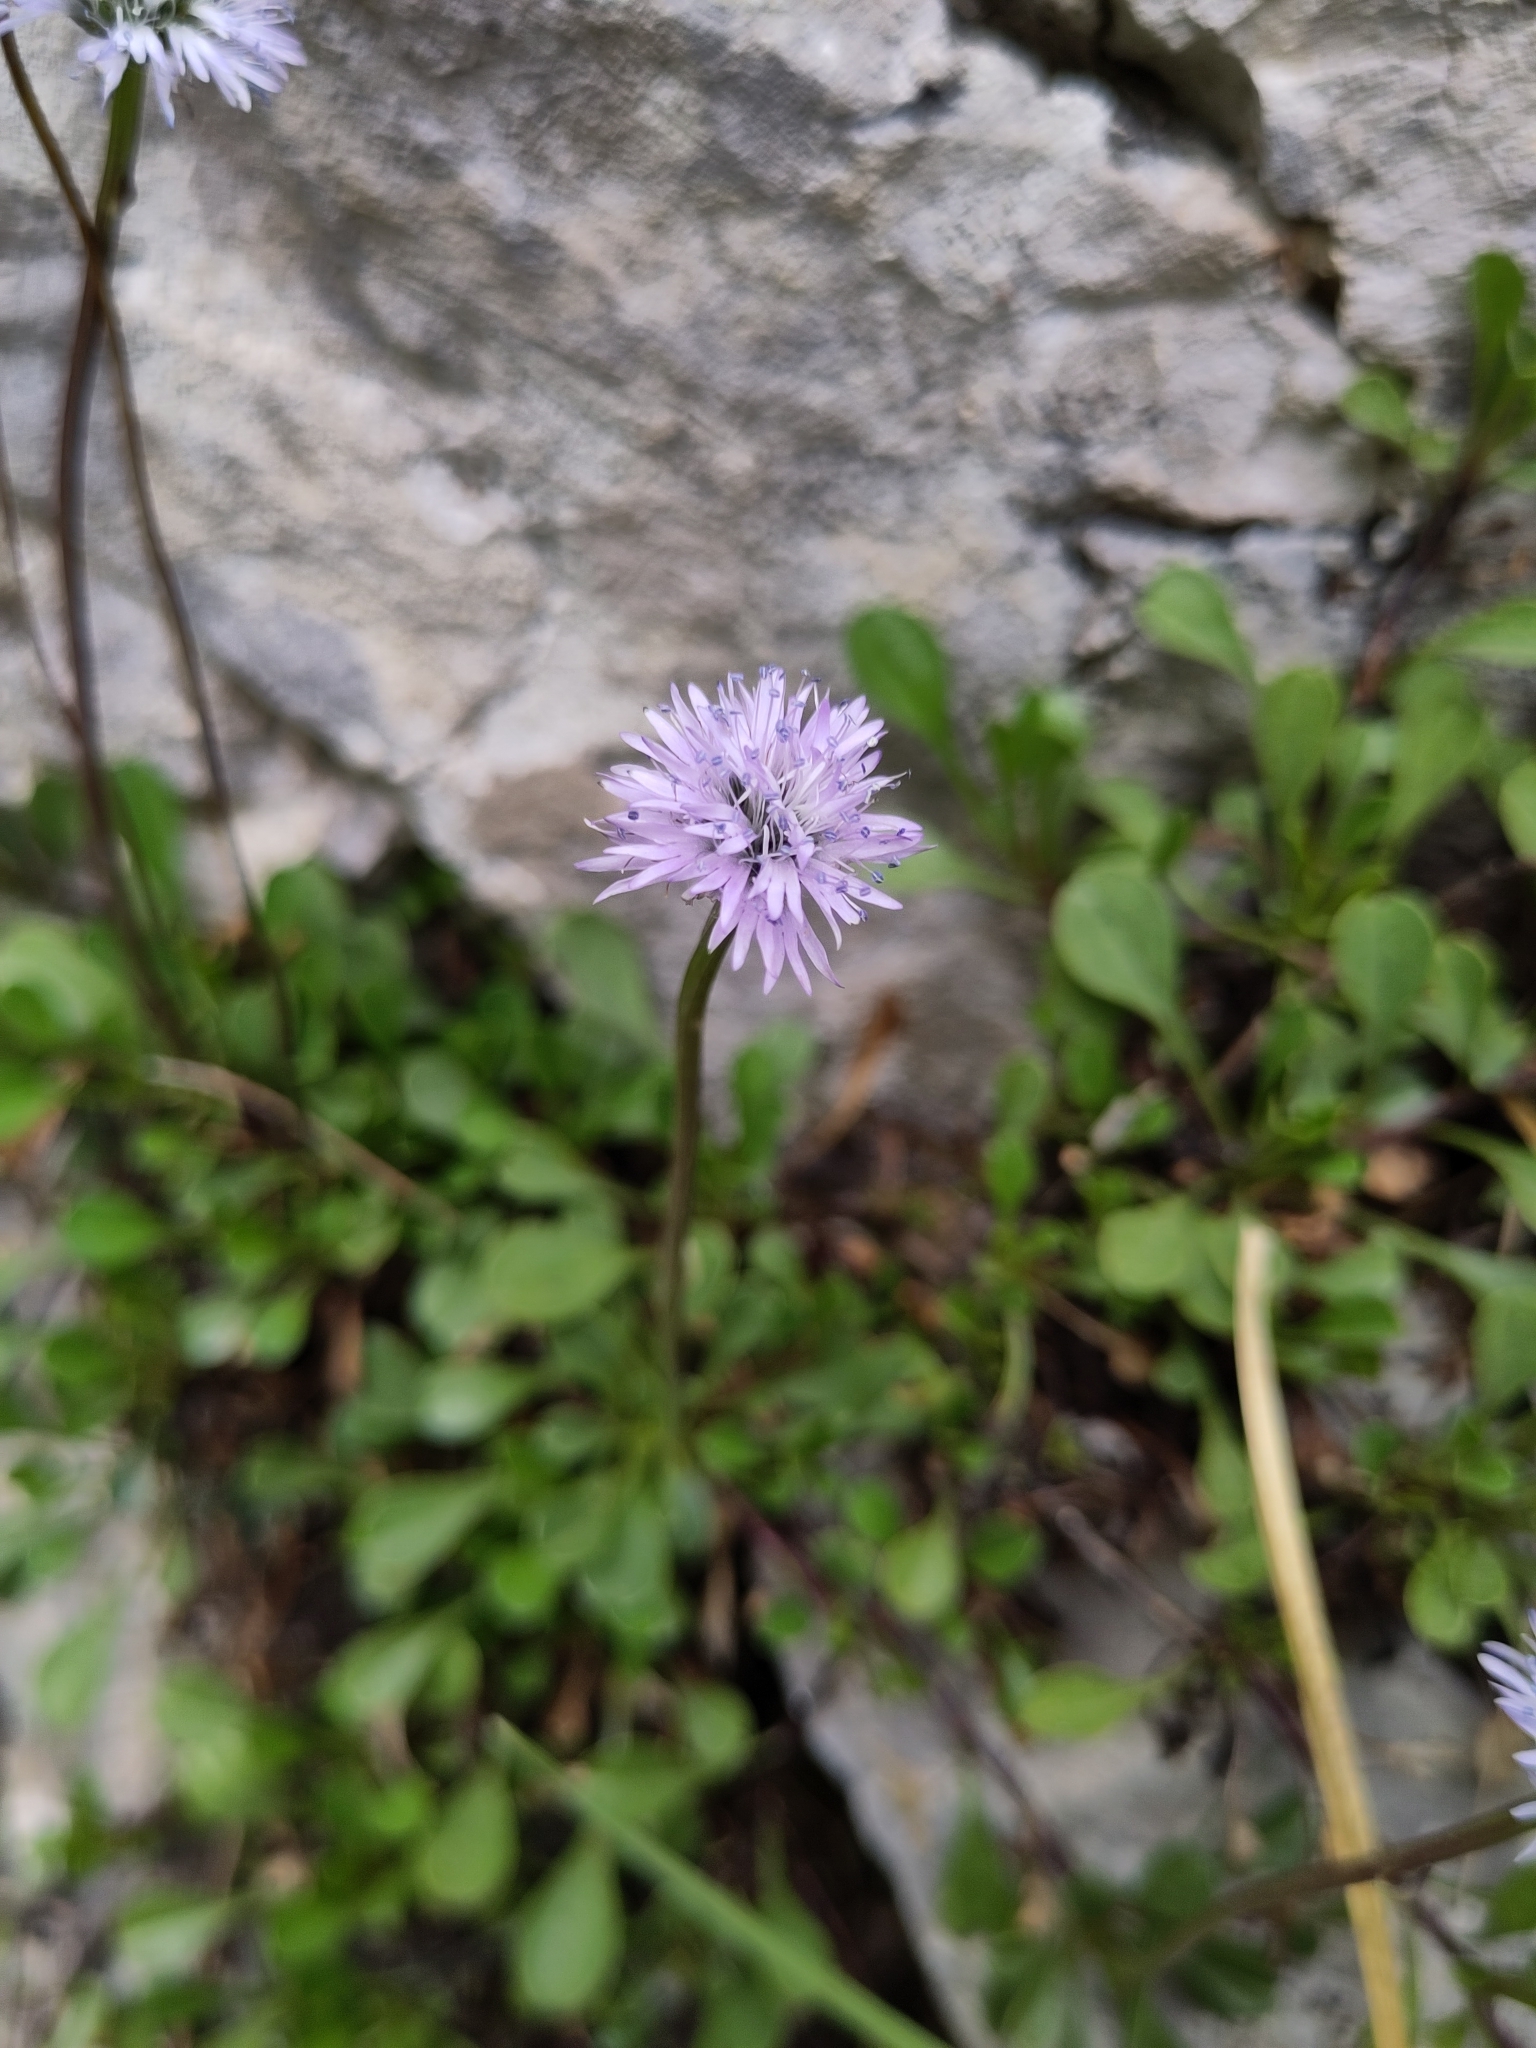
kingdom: Plantae
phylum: Tracheophyta
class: Magnoliopsida
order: Lamiales
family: Plantaginaceae
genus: Globularia
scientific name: Globularia cordifolia
